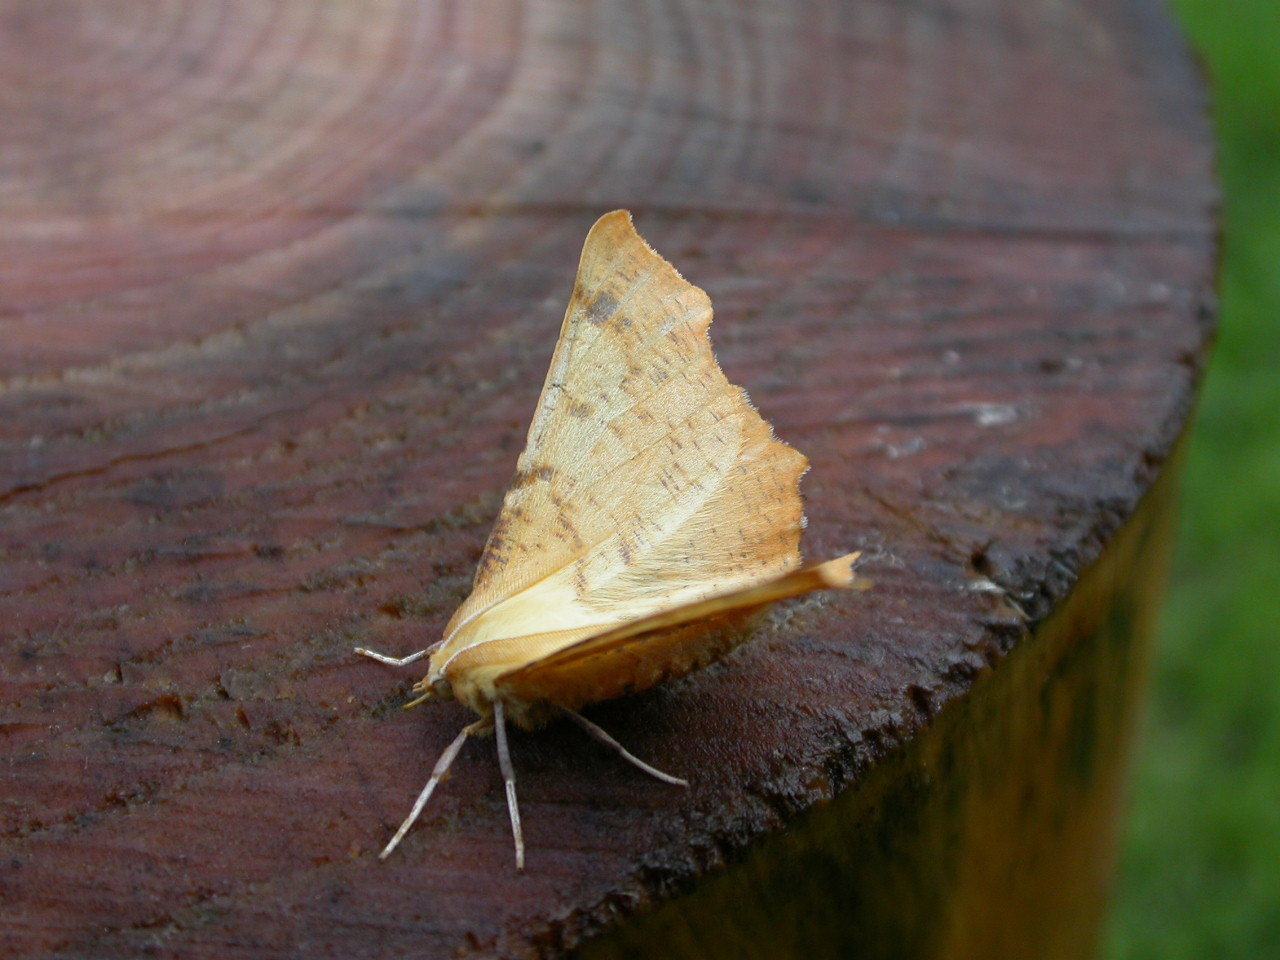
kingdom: Animalia
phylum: Arthropoda
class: Insecta
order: Lepidoptera
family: Geometridae
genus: Ennomos
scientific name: Ennomos autumnaria
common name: Large thorn
